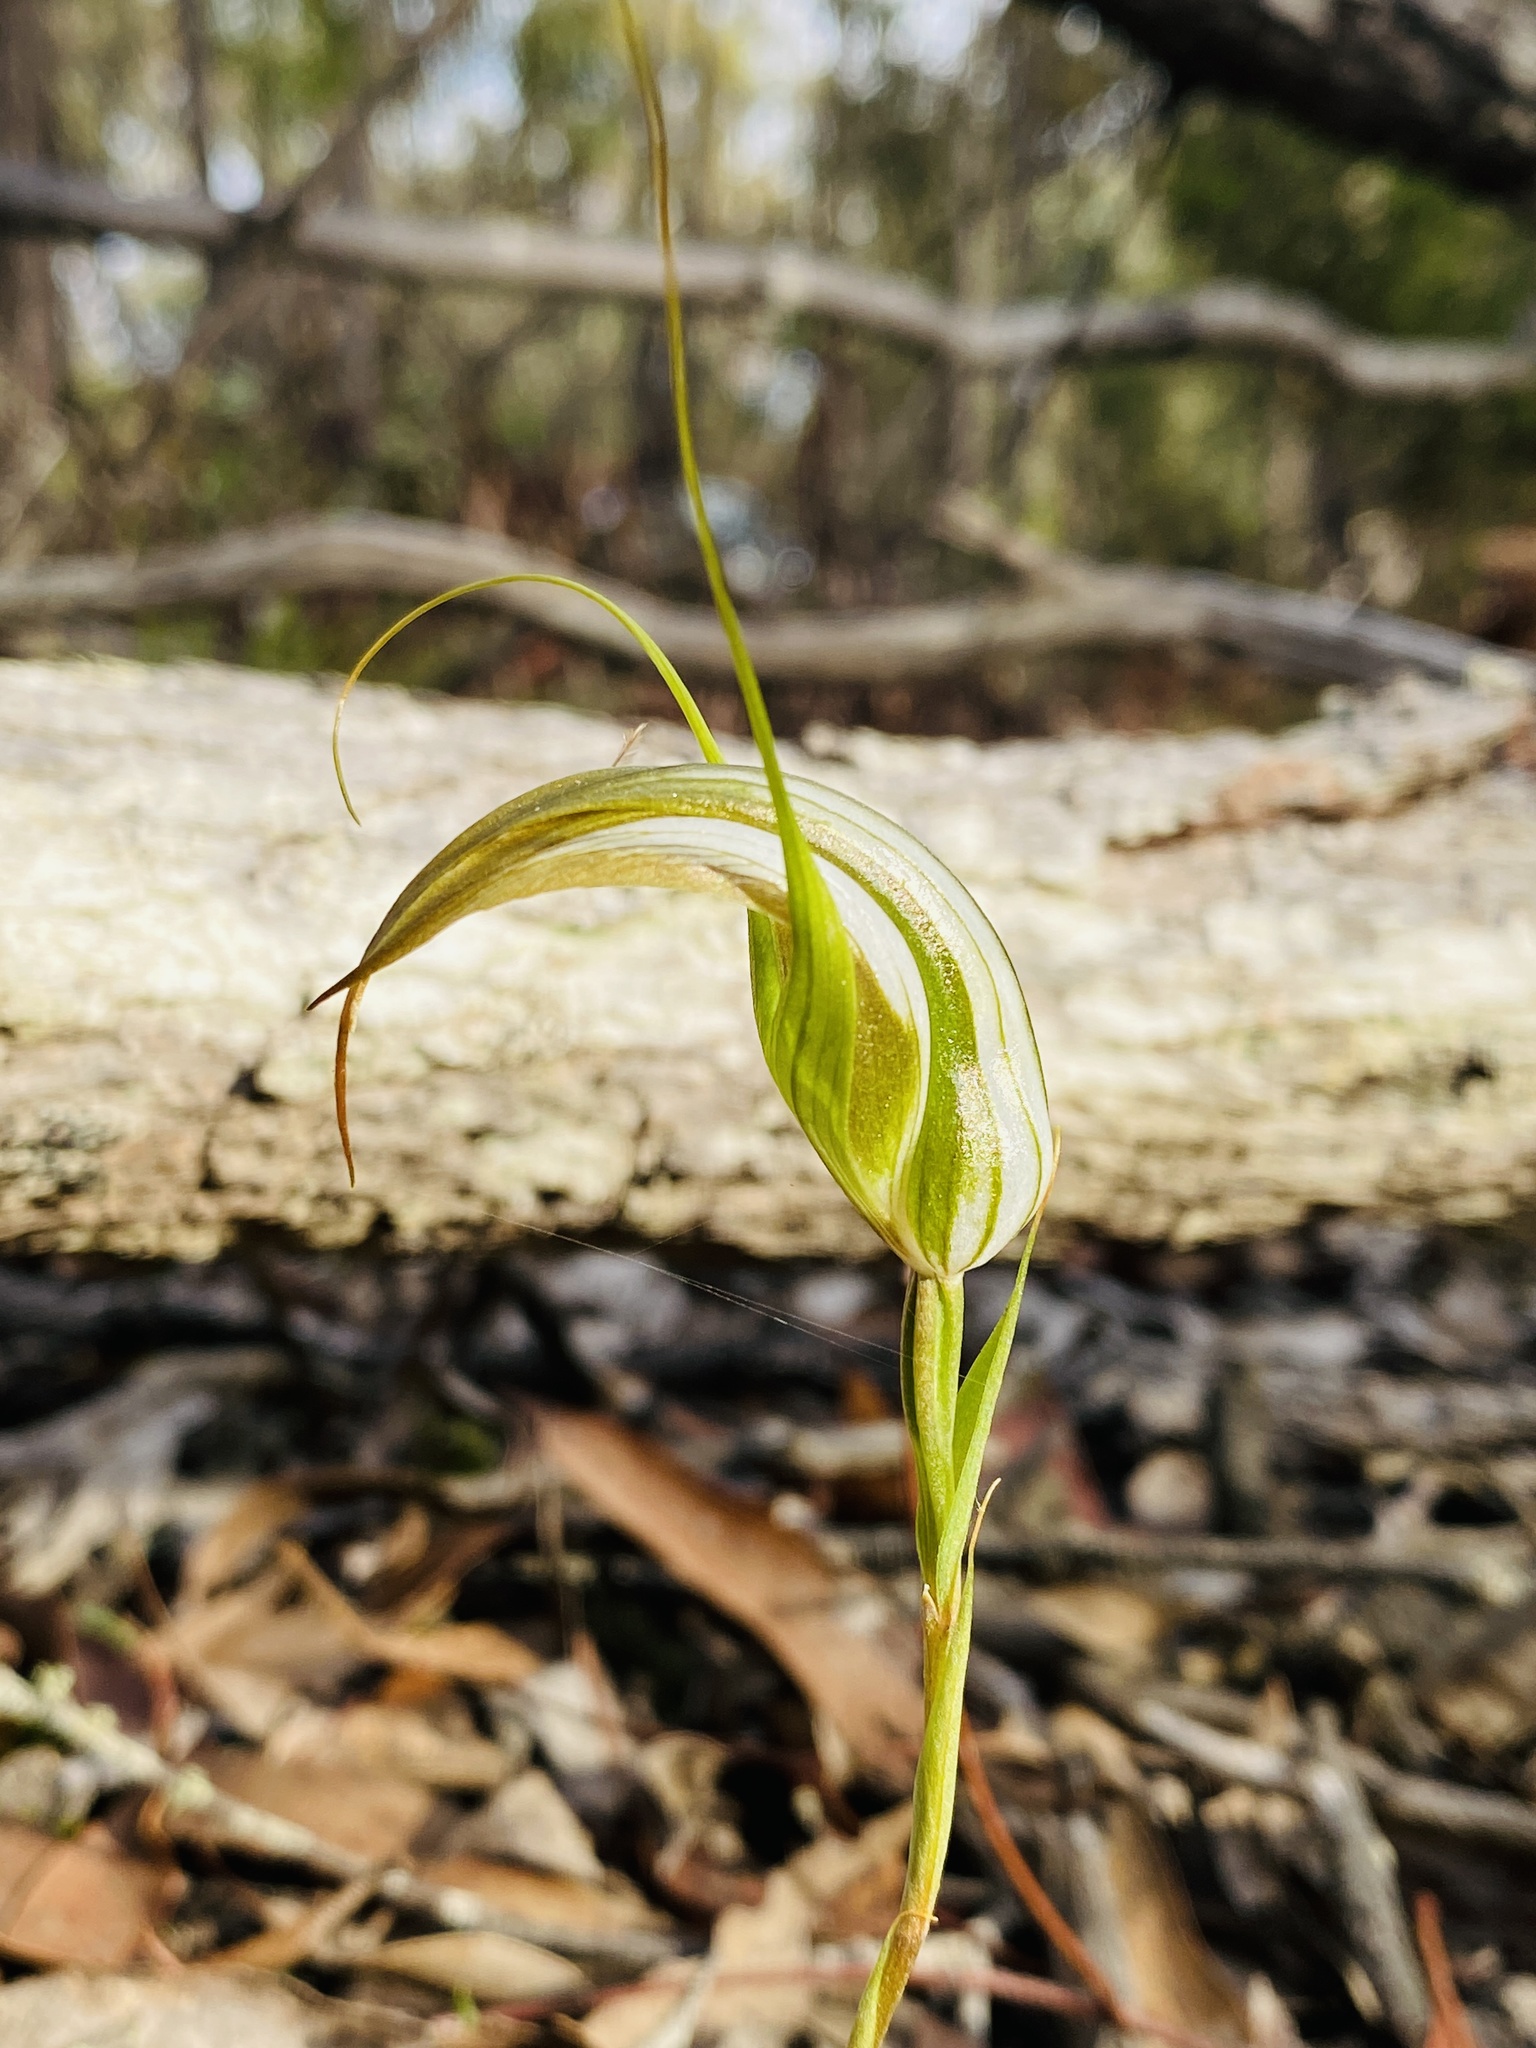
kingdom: Plantae
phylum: Tracheophyta
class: Liliopsida
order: Asparagales
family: Orchidaceae
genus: Pterostylis
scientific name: Pterostylis ampliata
